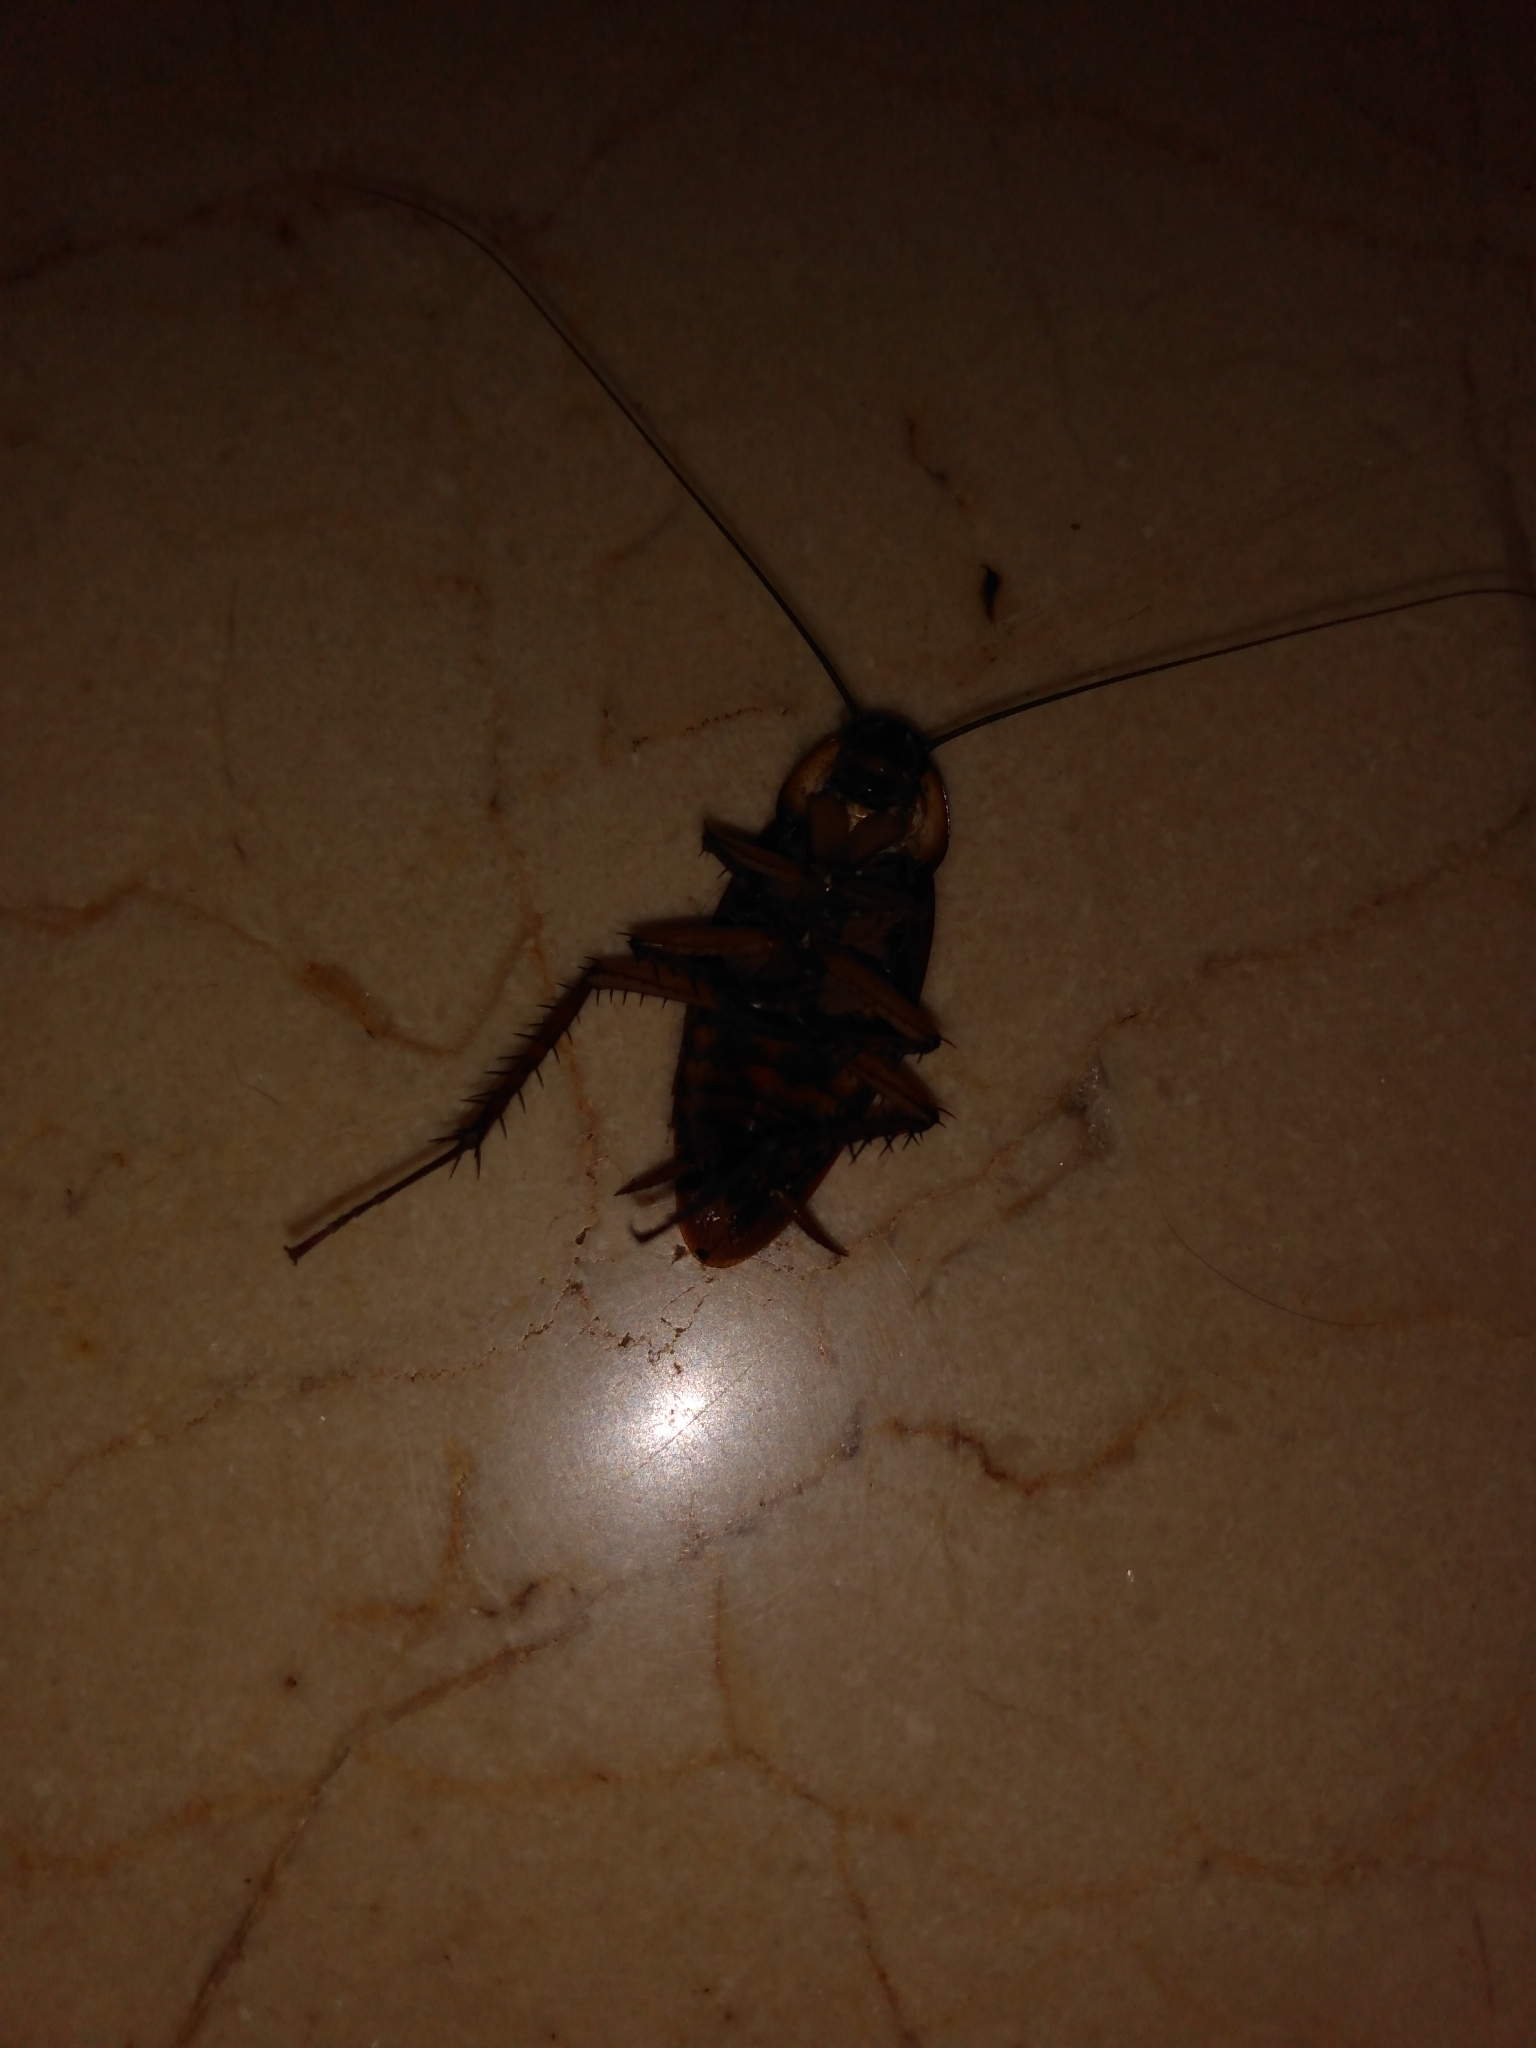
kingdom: Animalia
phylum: Arthropoda
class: Insecta
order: Blattodea
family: Blattidae
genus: Periplaneta
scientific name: Periplaneta americana
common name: American cockroach
